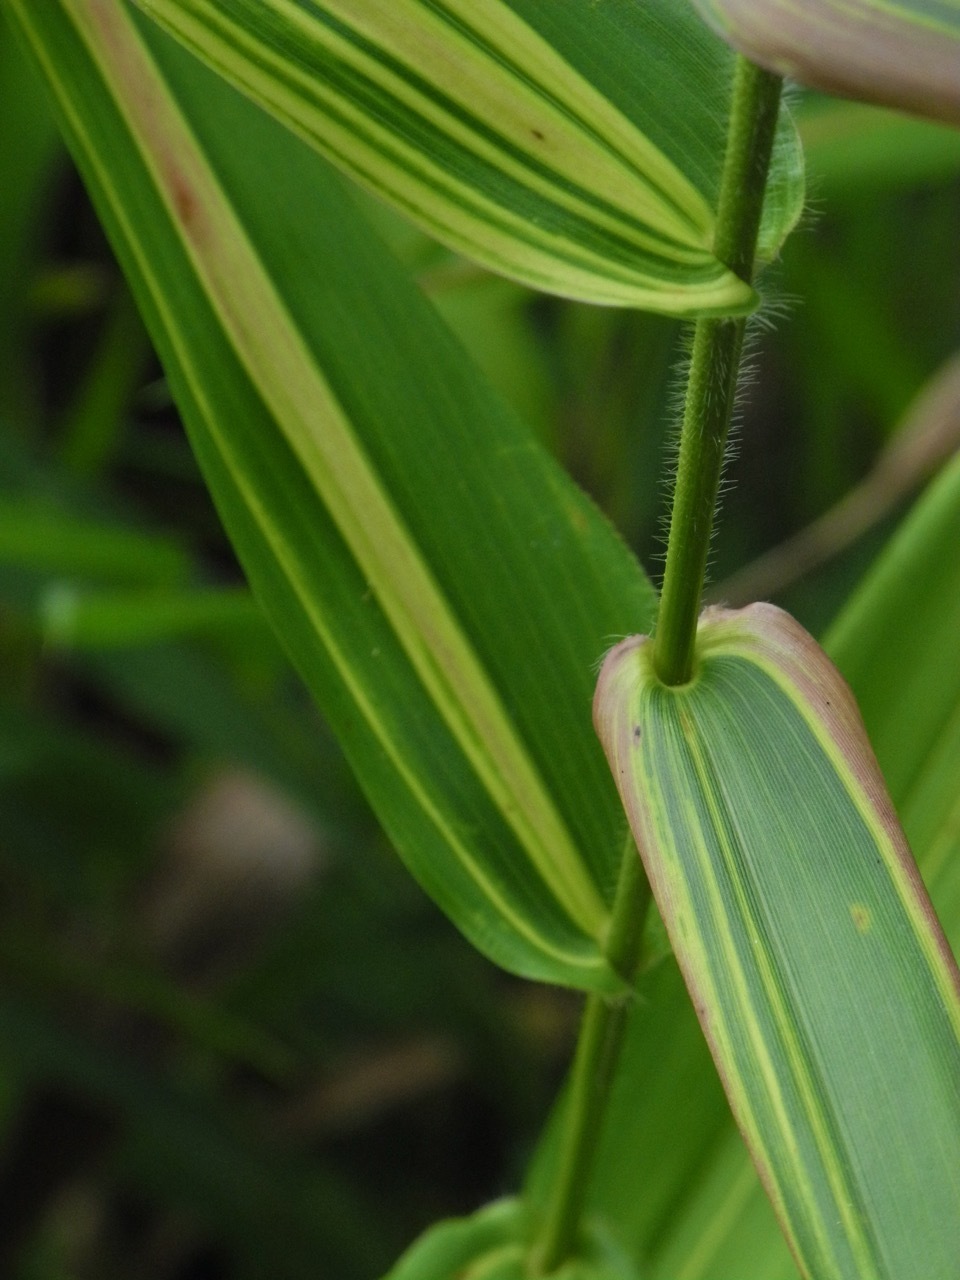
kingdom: Plantae
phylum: Tracheophyta
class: Liliopsida
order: Poales
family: Poaceae
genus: Dichanthelium
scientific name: Dichanthelium clandestinum
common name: Deer-tongue grass
